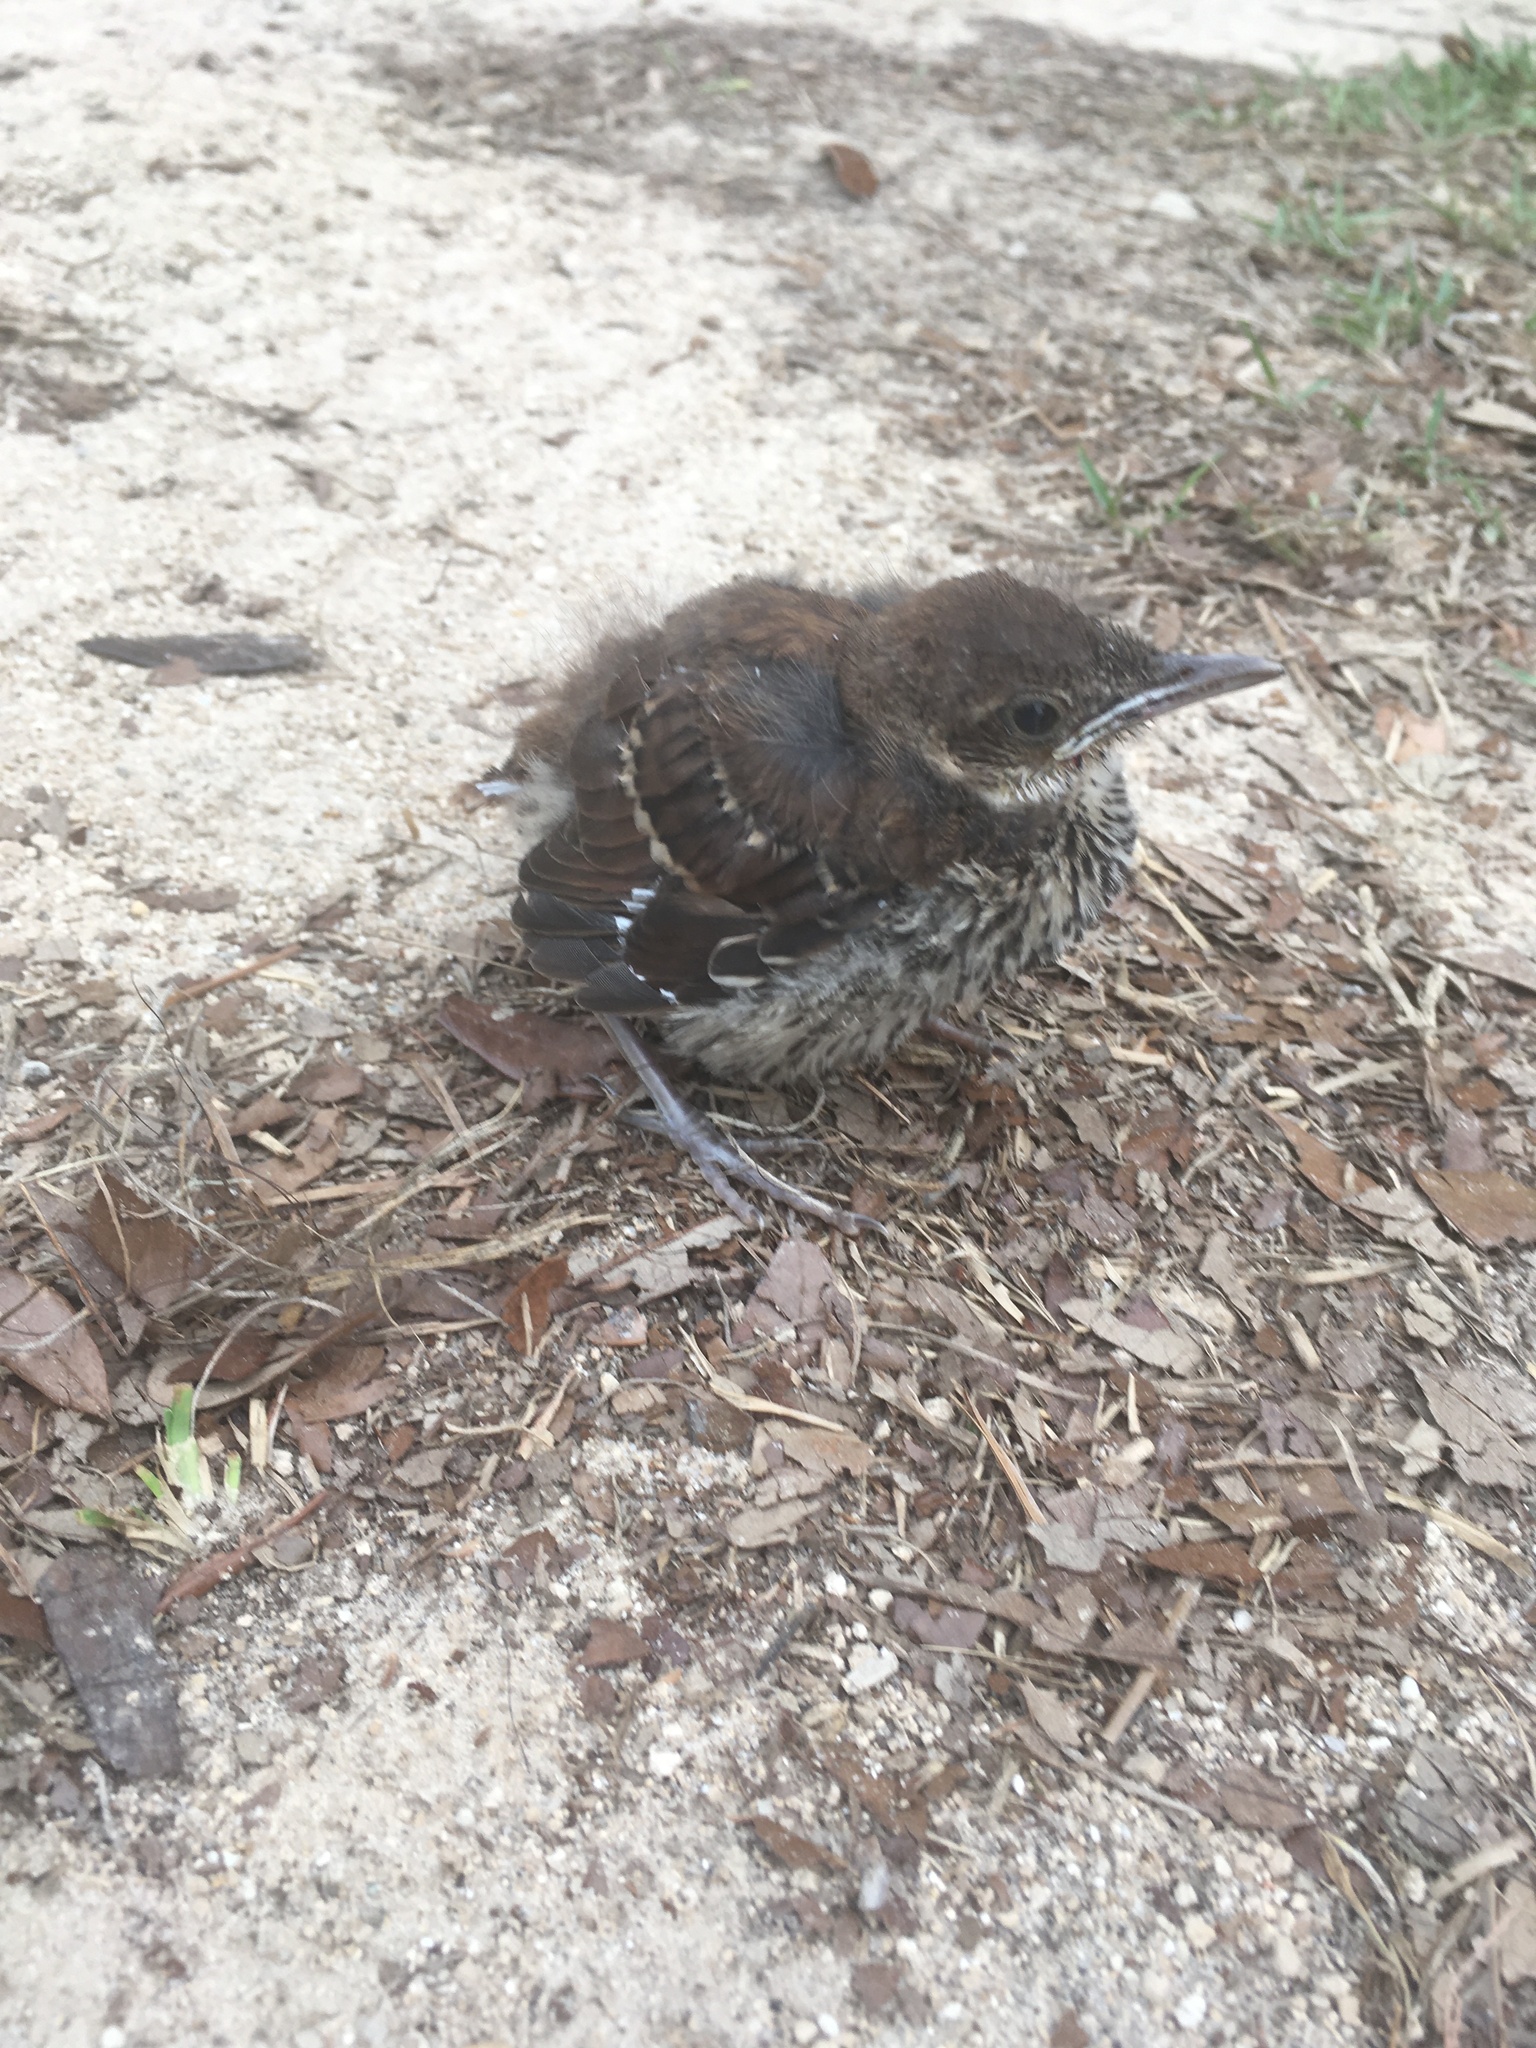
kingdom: Animalia
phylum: Chordata
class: Aves
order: Passeriformes
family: Mimidae
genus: Mimus
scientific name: Mimus polyglottos
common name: Northern mockingbird
